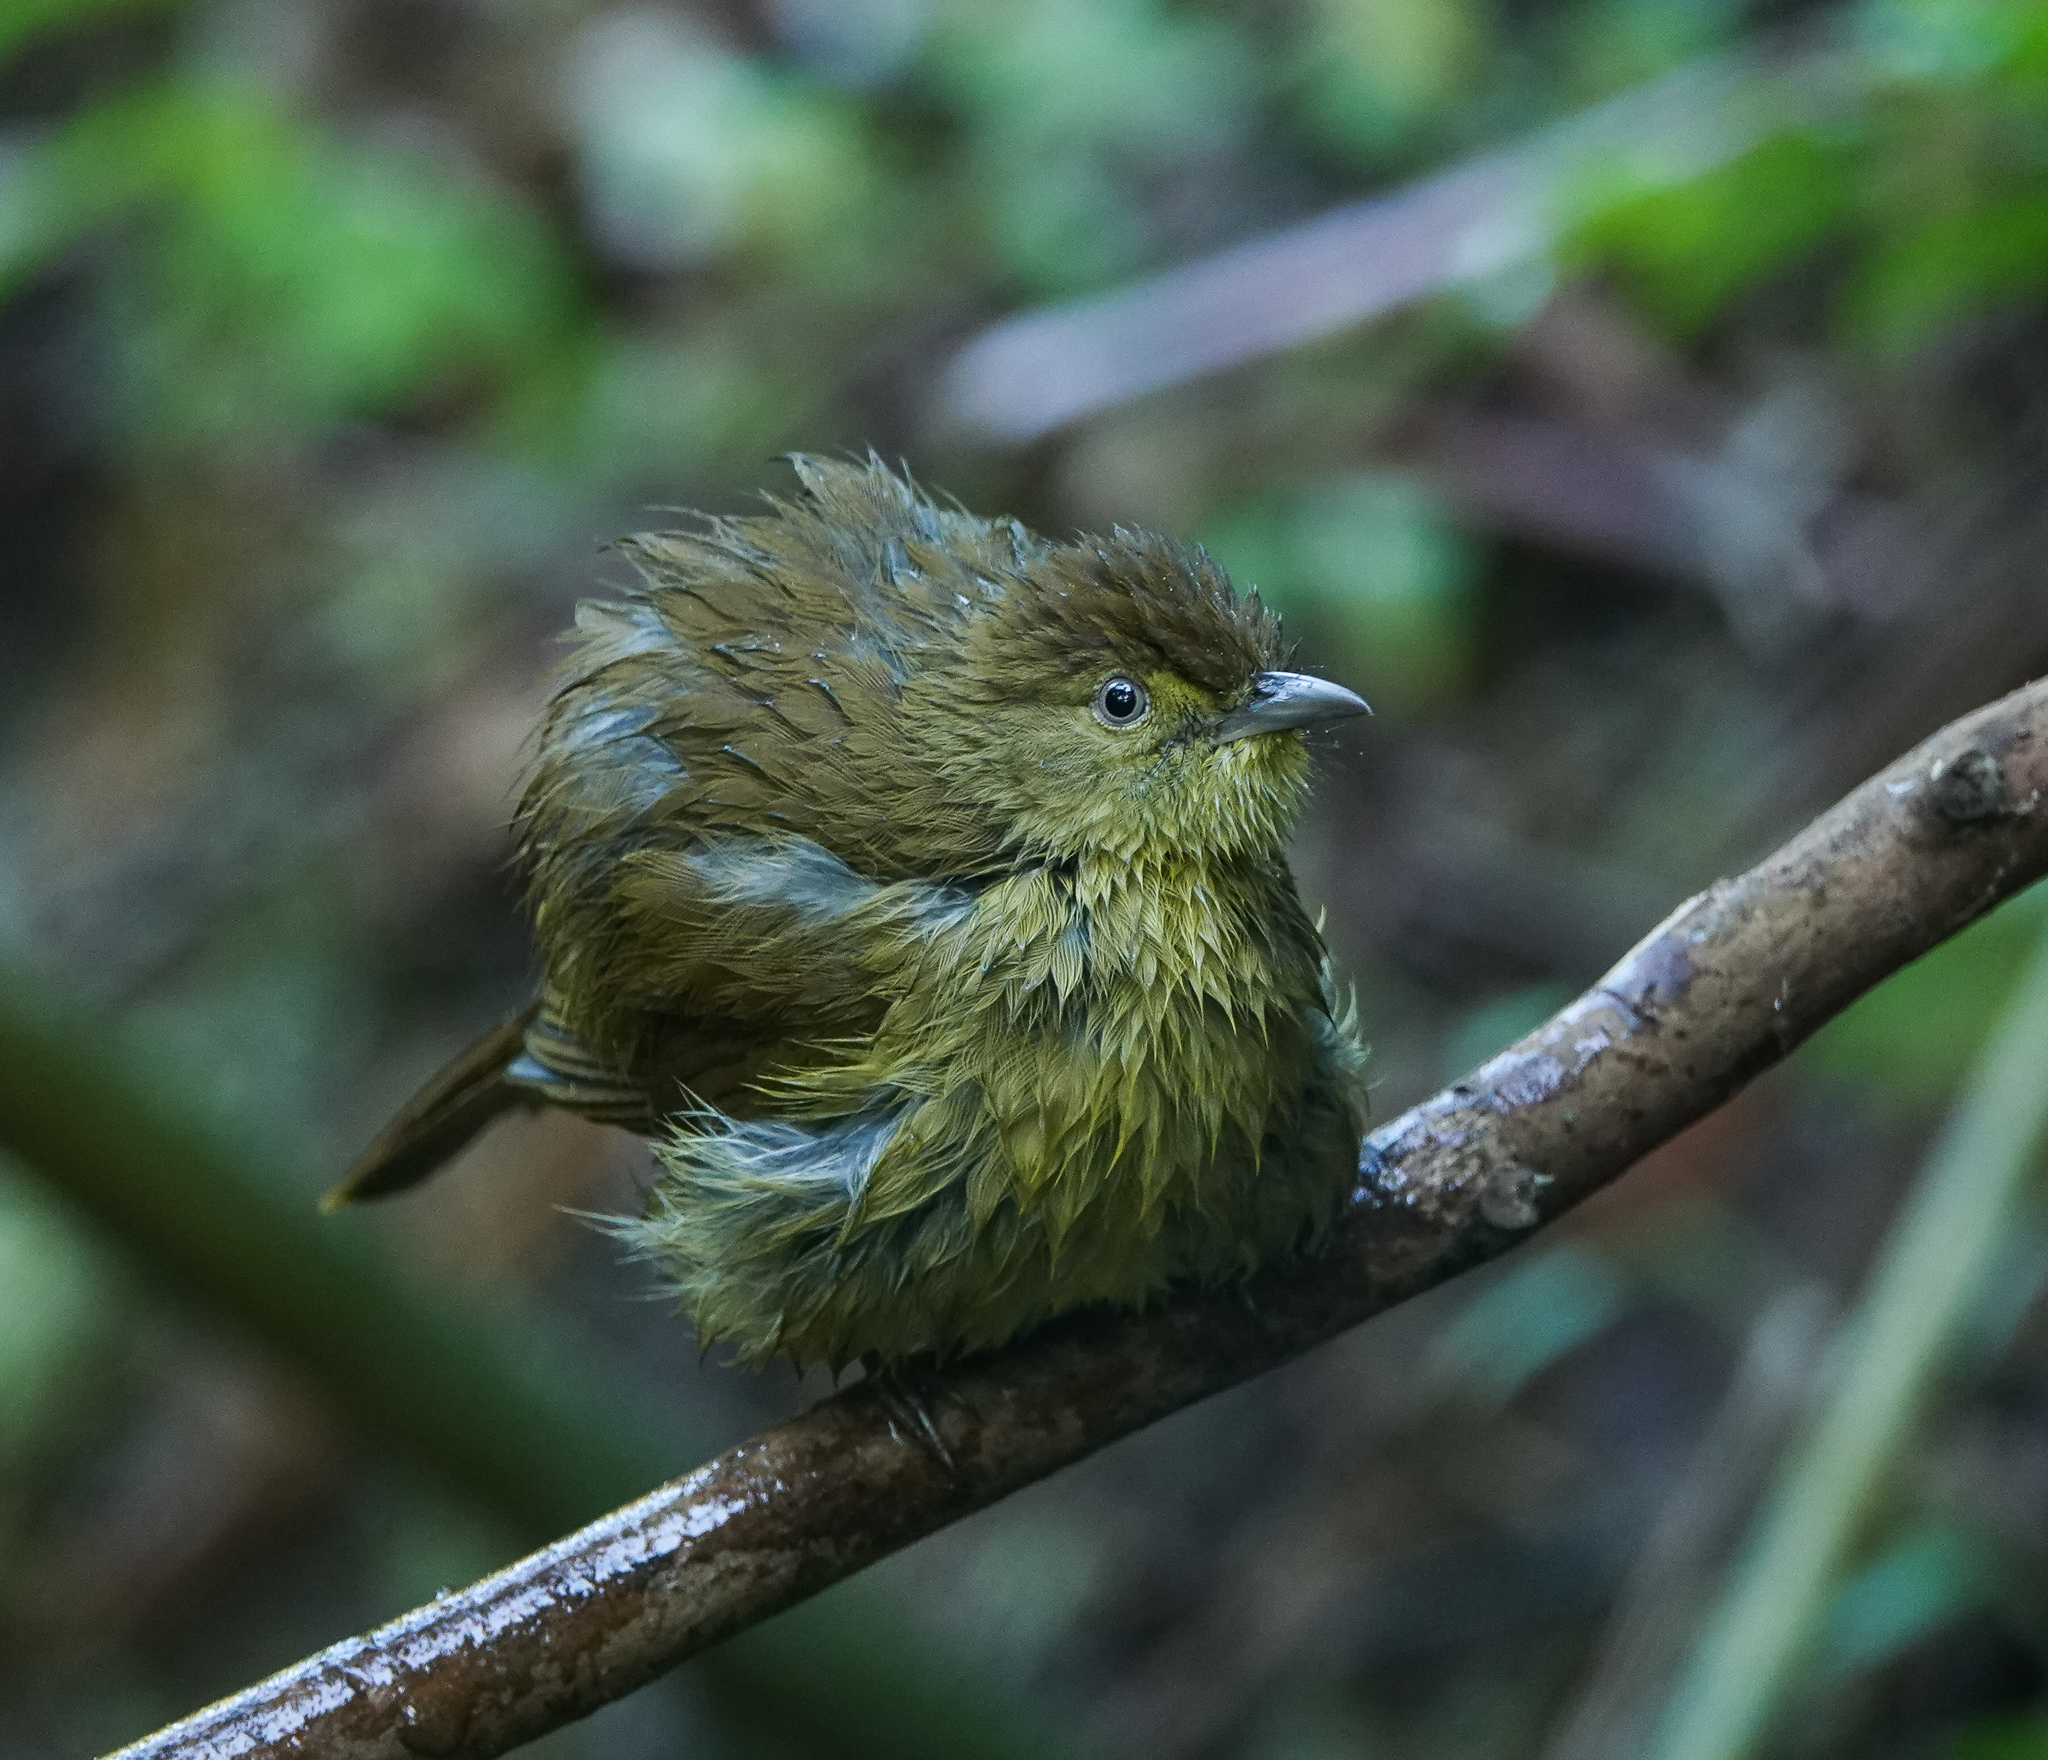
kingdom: Animalia
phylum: Chordata
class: Aves
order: Passeriformes
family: Pycnonotidae
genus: Iole
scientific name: Iole virescens
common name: Olive bulbul
